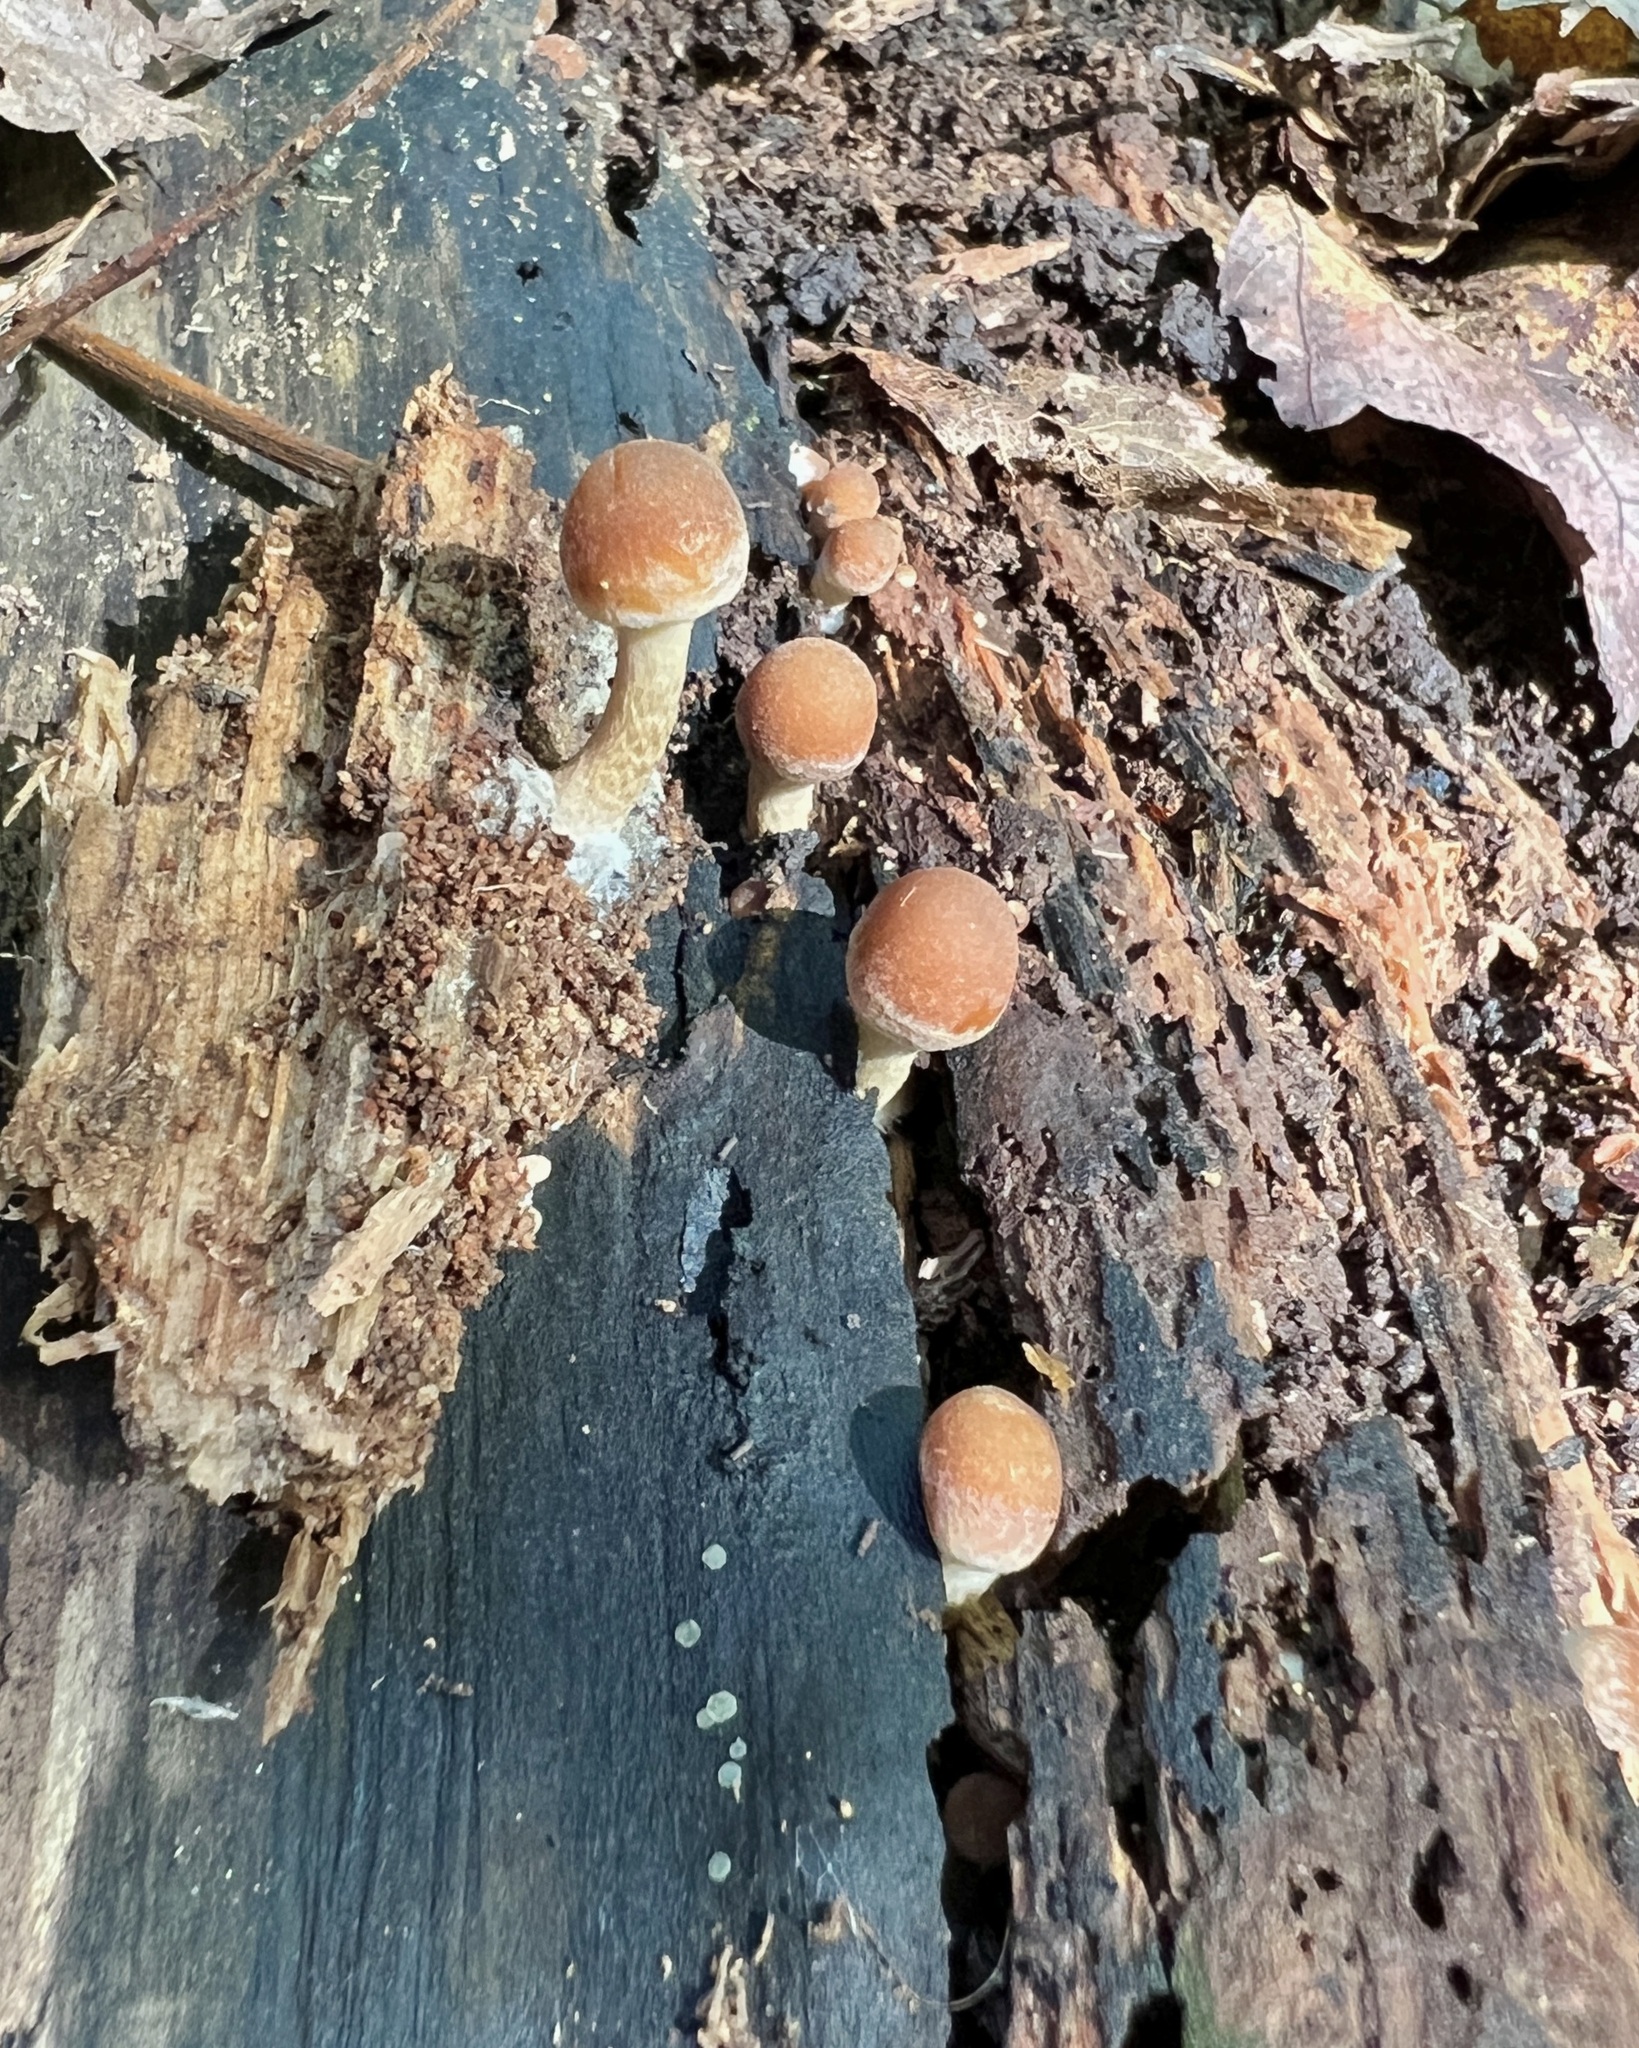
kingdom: Fungi
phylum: Basidiomycota
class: Agaricomycetes
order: Agaricales
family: Psathyrellaceae
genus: Psathyrella
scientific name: Psathyrella piluliformis
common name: Common stump brittlestem
